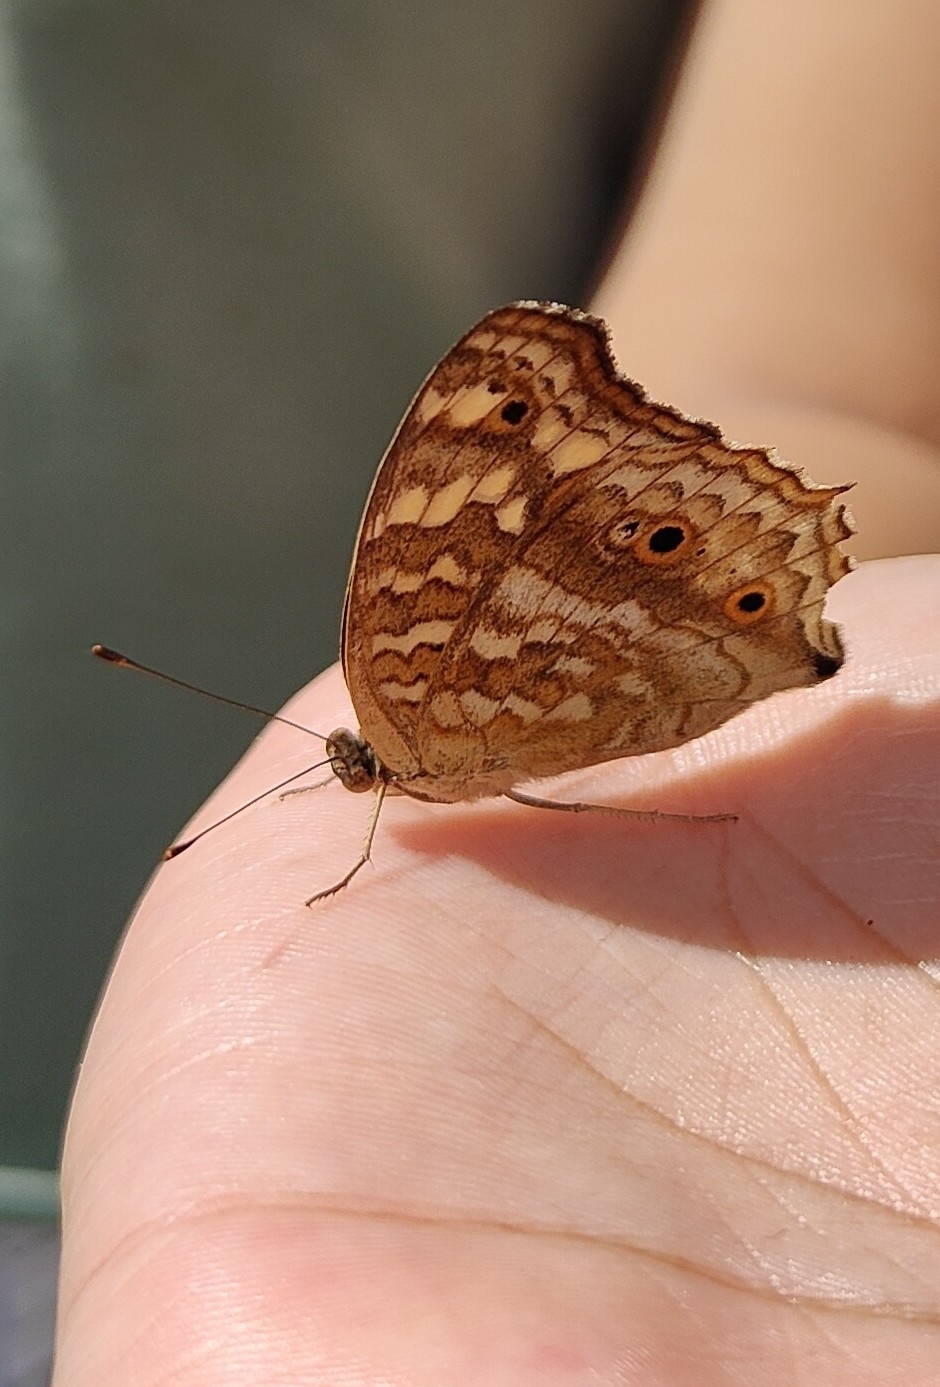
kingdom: Animalia
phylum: Arthropoda
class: Insecta
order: Lepidoptera
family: Nymphalidae
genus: Junonia
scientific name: Junonia lemonias
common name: Lemon pansy
